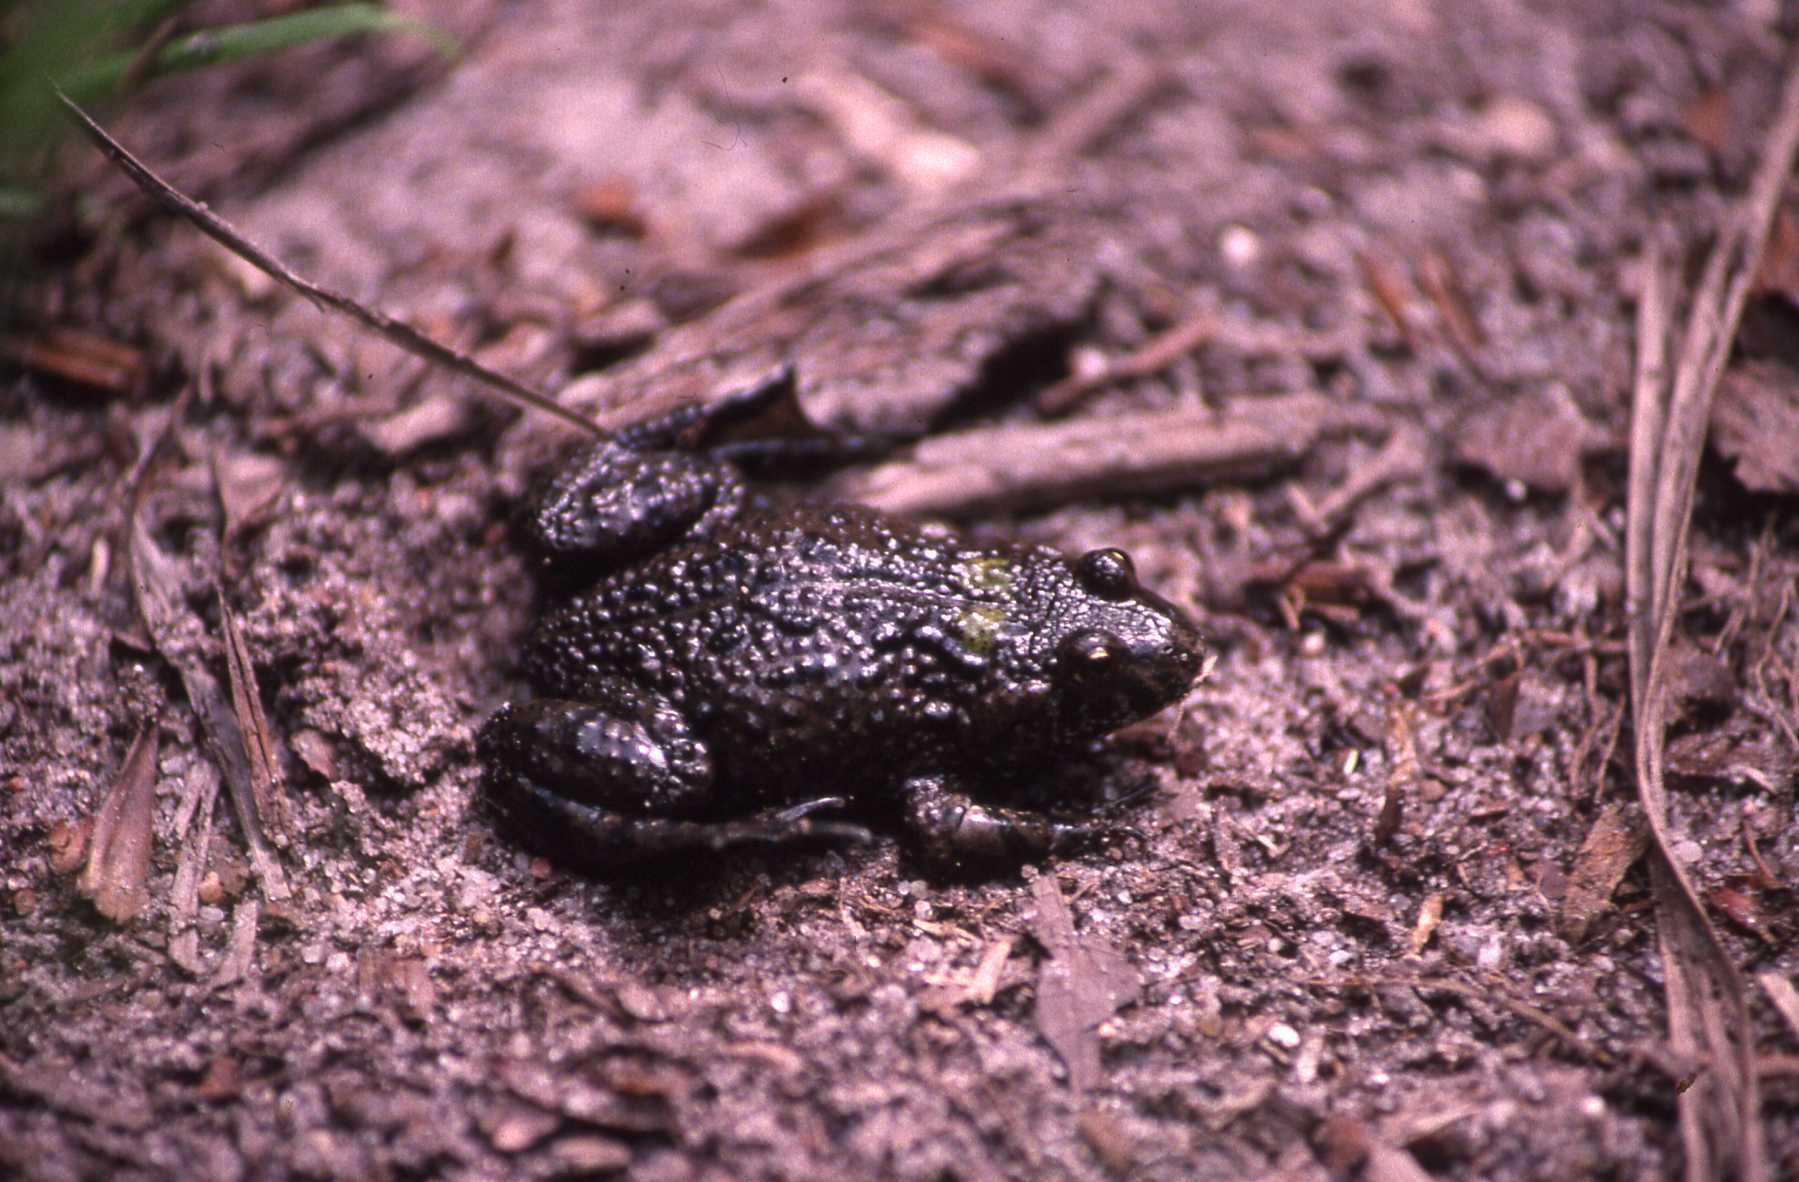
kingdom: Animalia
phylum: Chordata
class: Amphibia
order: Anura
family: Bombinatoridae
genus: Bombina
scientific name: Bombina bombina
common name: Fire-bellied toad
